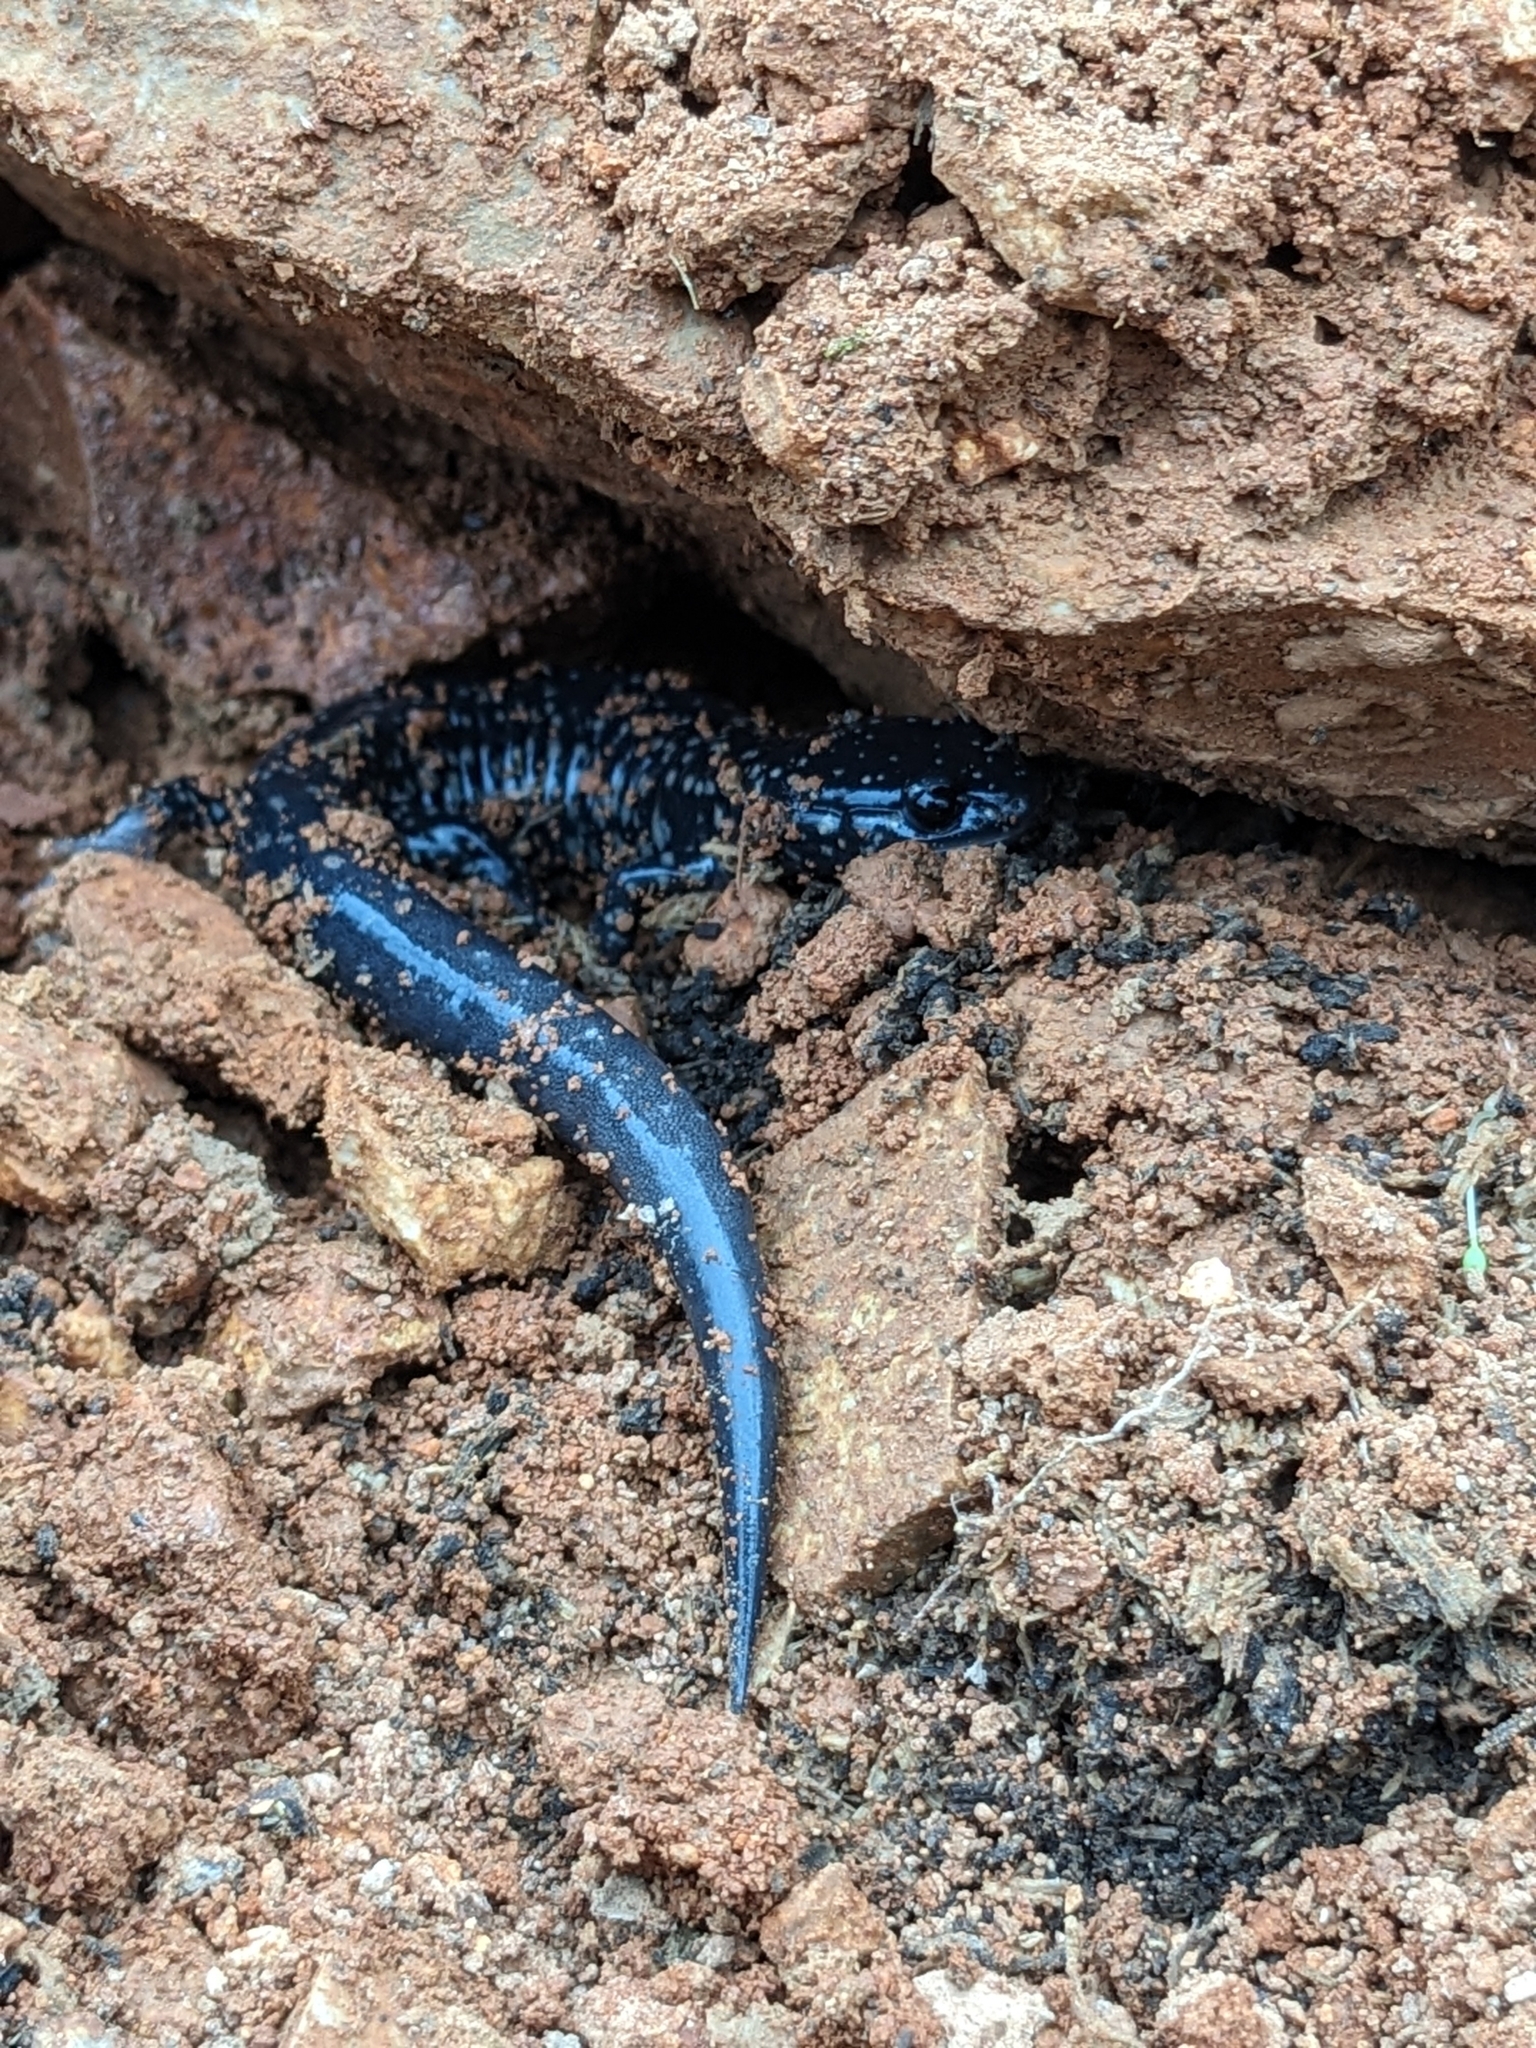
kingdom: Animalia
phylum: Chordata
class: Amphibia
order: Caudata
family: Plethodontidae
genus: Plethodon
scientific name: Plethodon albagula
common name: Western slimy salamander
